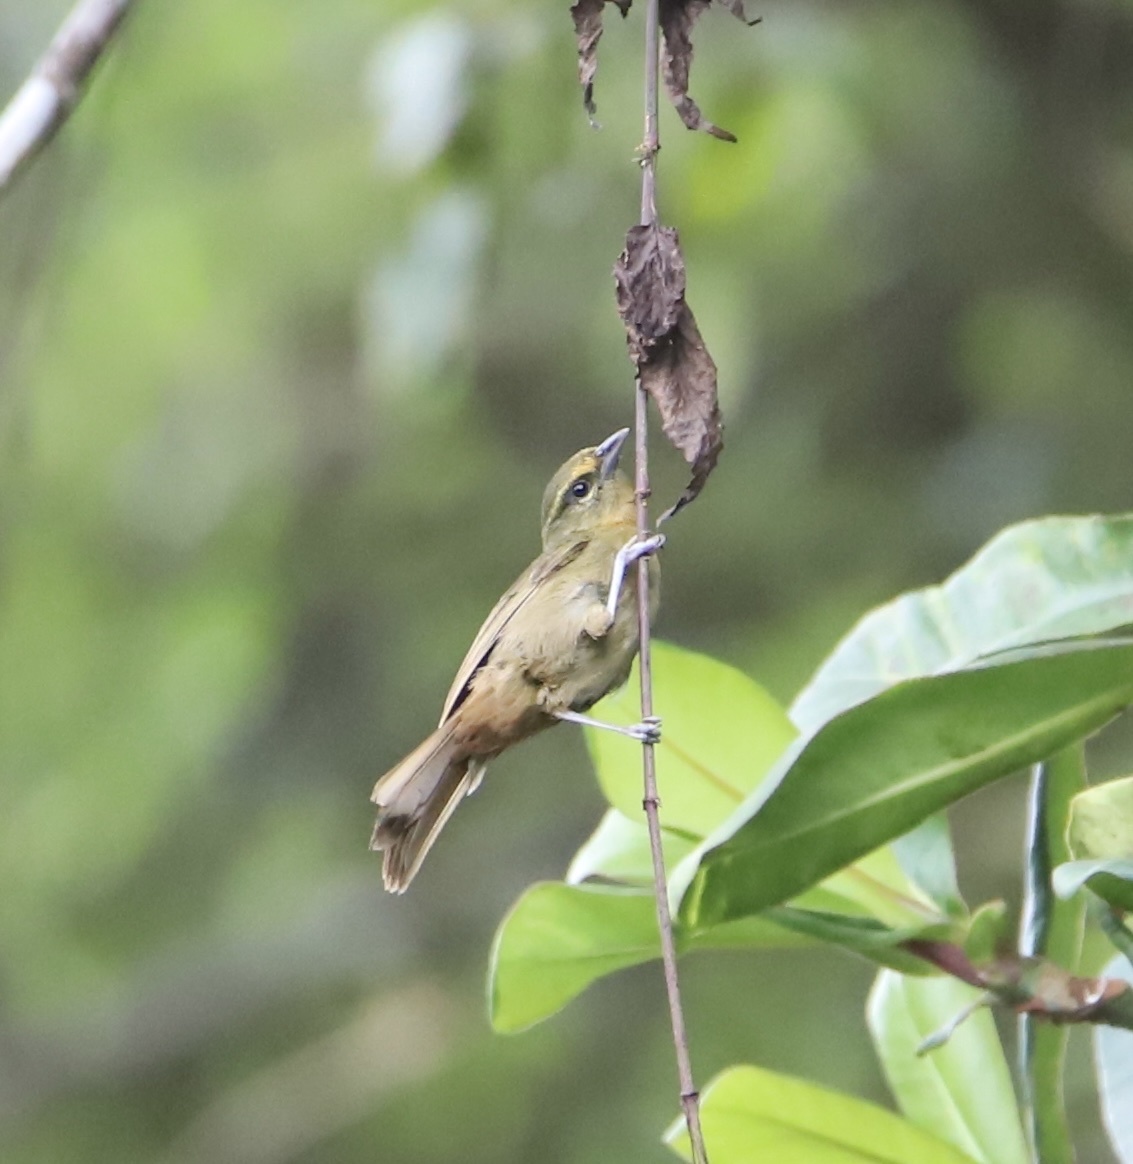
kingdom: Animalia
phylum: Chordata
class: Aves
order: Passeriformes
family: Thraupidae
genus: Sphenopsis
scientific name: Sphenopsis frontalis
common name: Oleaginous hemispingus
